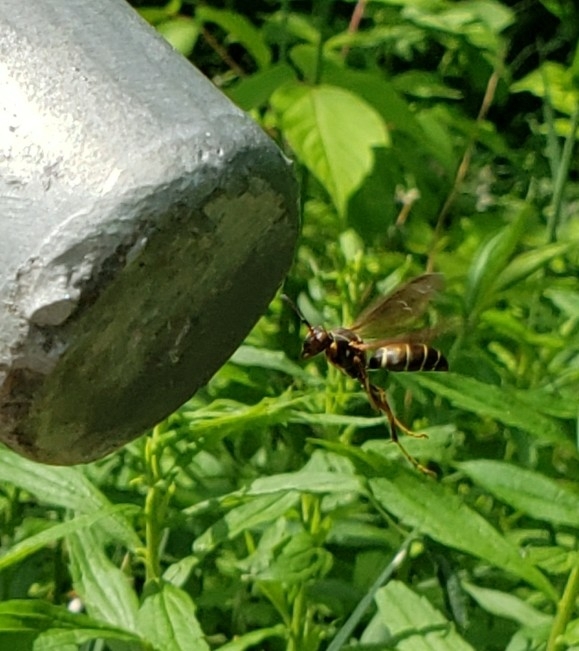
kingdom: Animalia
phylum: Arthropoda
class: Insecta
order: Hymenoptera
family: Eumenidae
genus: Polistes
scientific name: Polistes fuscatus
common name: Dark paper wasp
